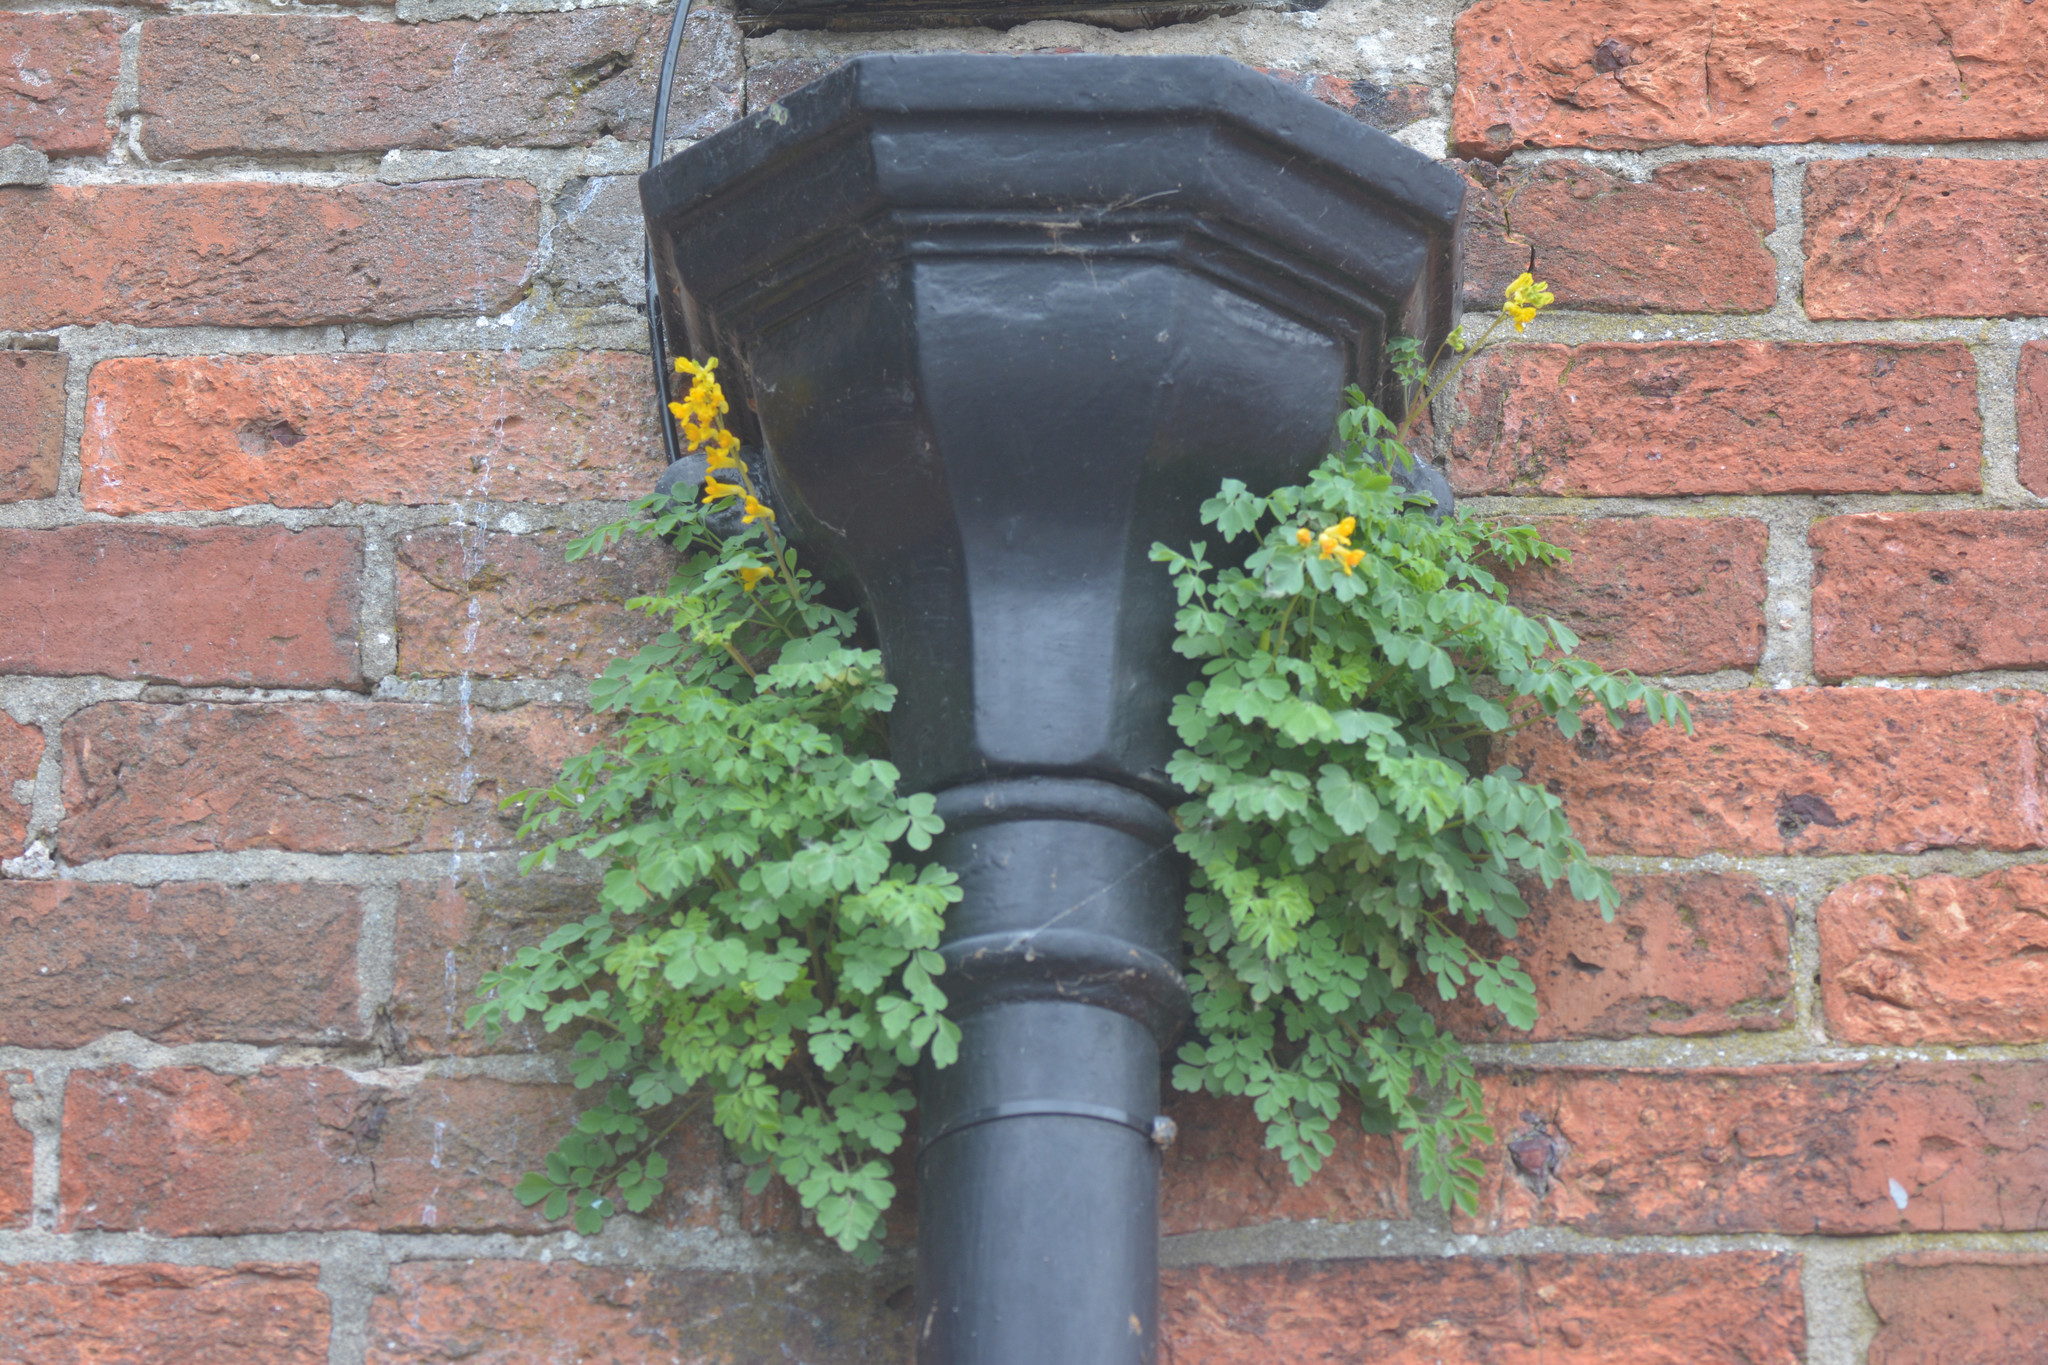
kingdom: Plantae
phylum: Tracheophyta
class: Magnoliopsida
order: Ranunculales
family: Papaveraceae
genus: Pseudofumaria
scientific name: Pseudofumaria lutea
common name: Yellow corydalis
